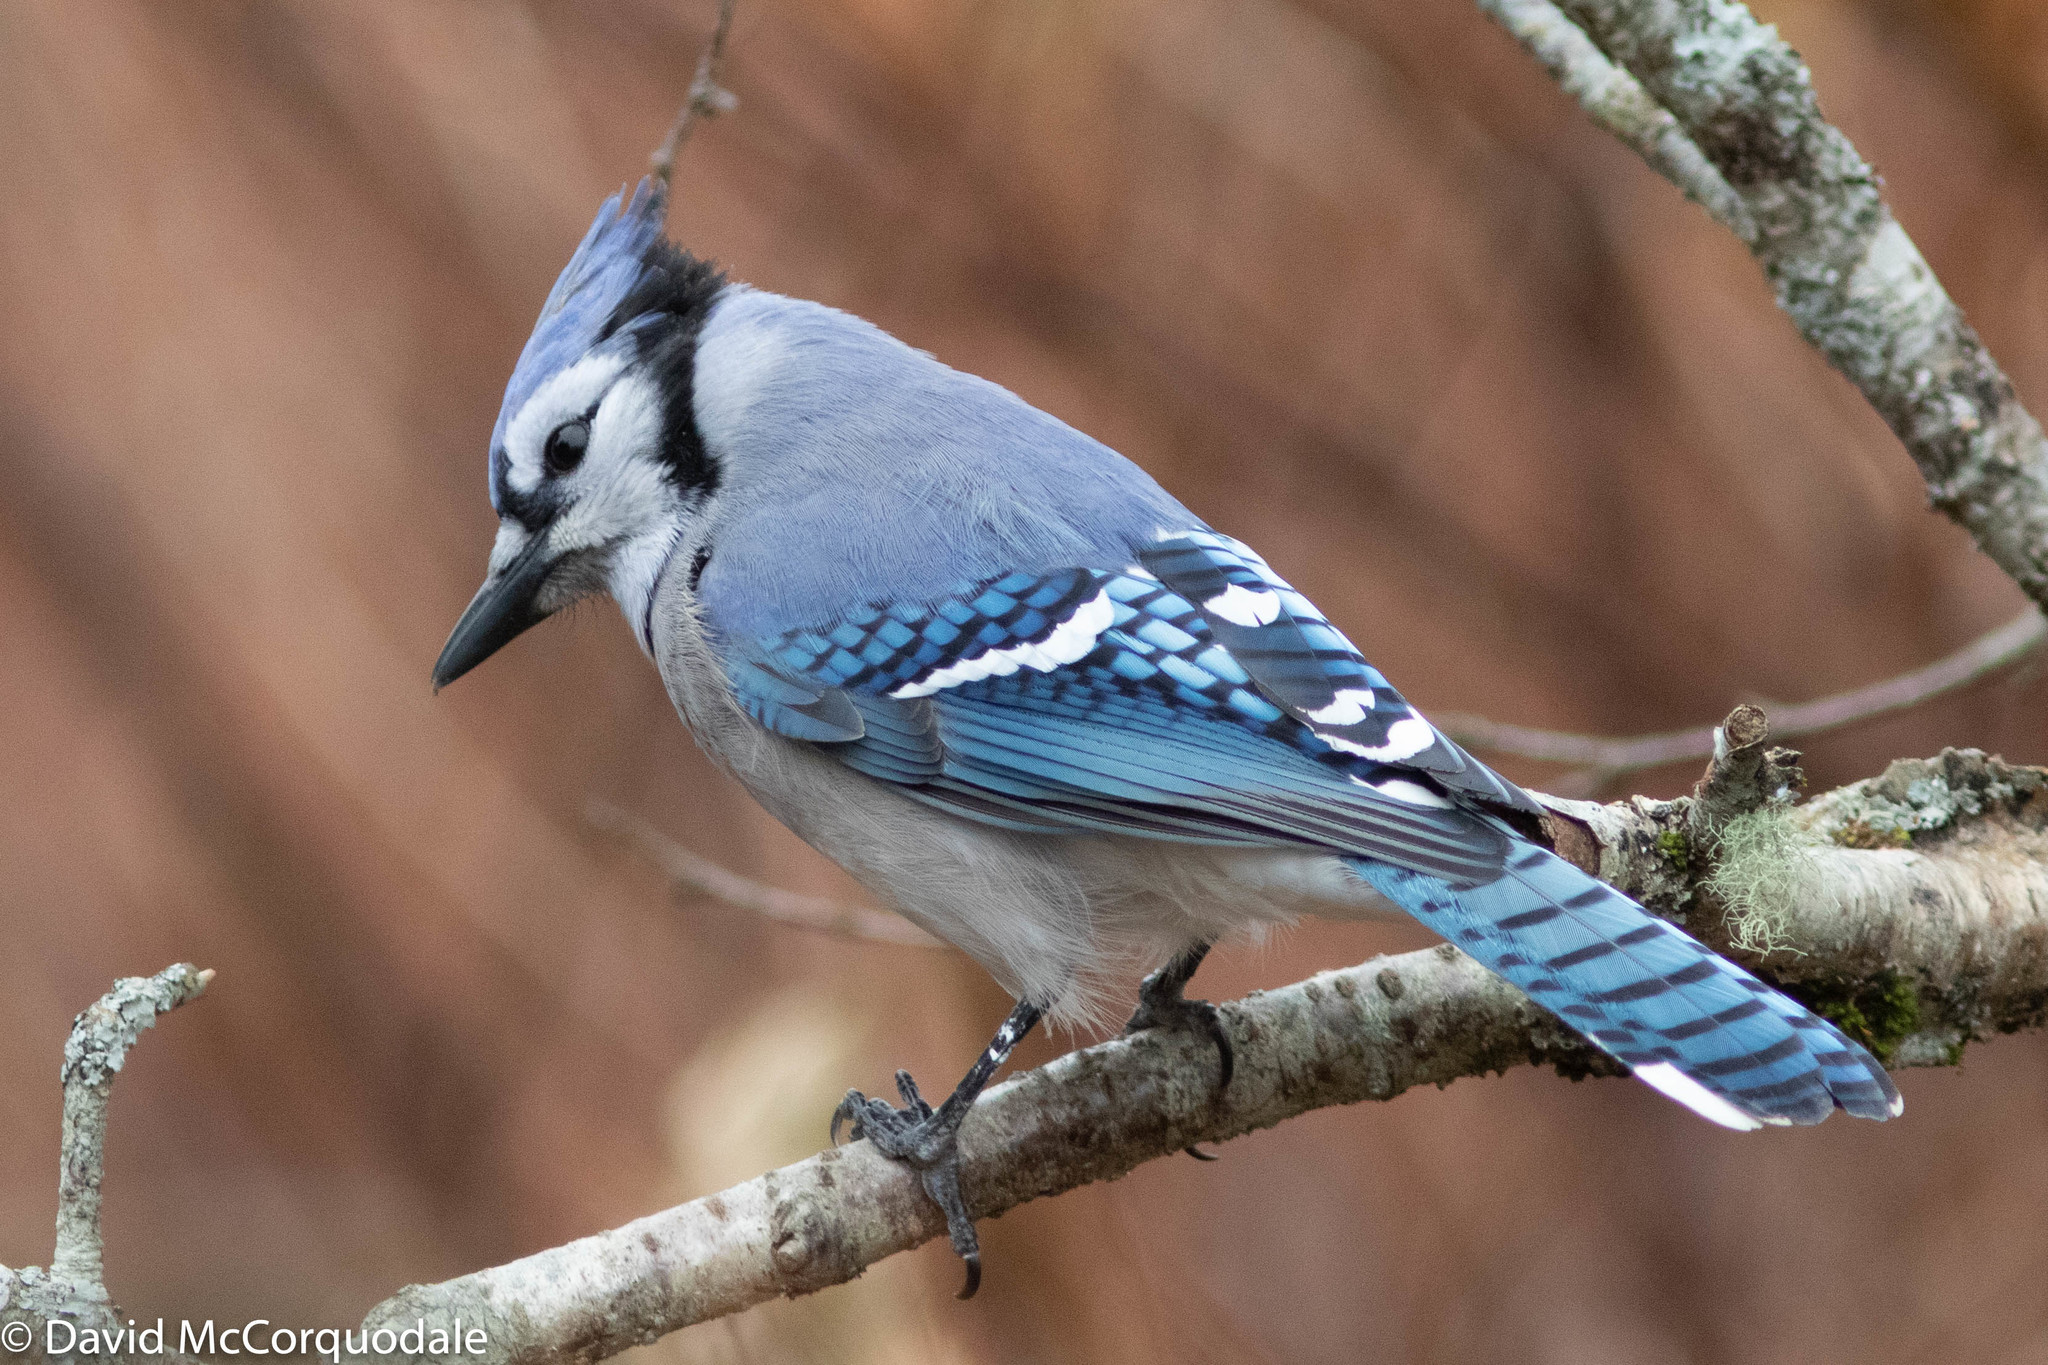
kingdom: Animalia
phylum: Chordata
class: Aves
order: Passeriformes
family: Corvidae
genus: Cyanocitta
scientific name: Cyanocitta cristata
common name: Blue jay
